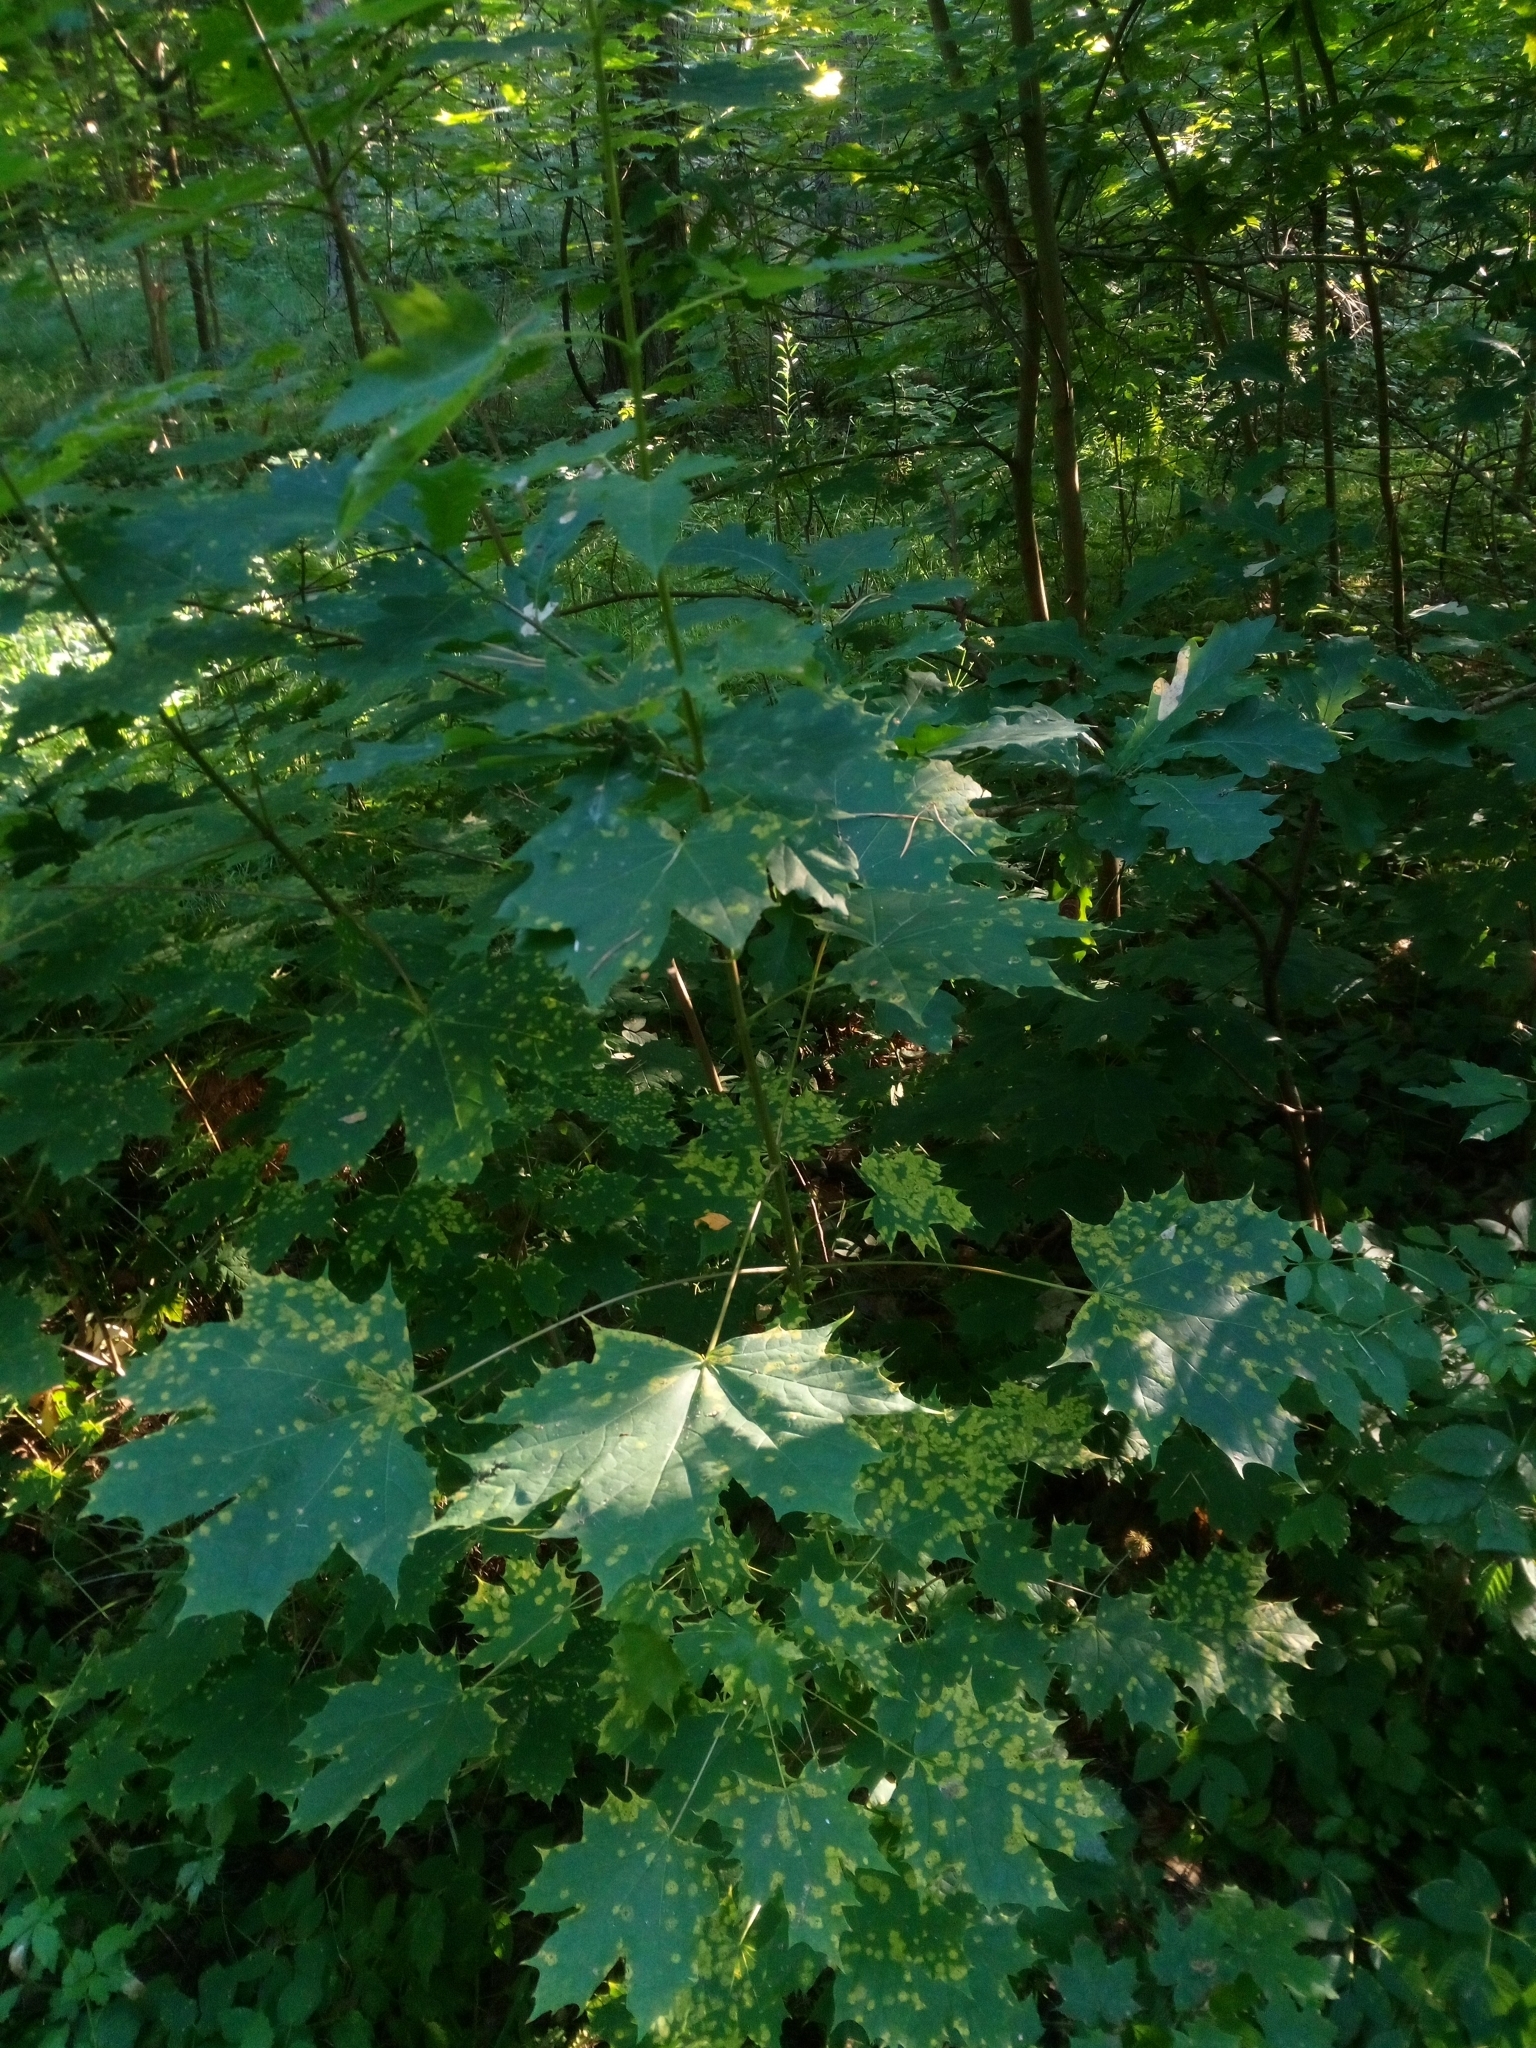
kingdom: Plantae
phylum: Tracheophyta
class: Magnoliopsida
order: Sapindales
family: Sapindaceae
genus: Acer
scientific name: Acer platanoides
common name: Norway maple
